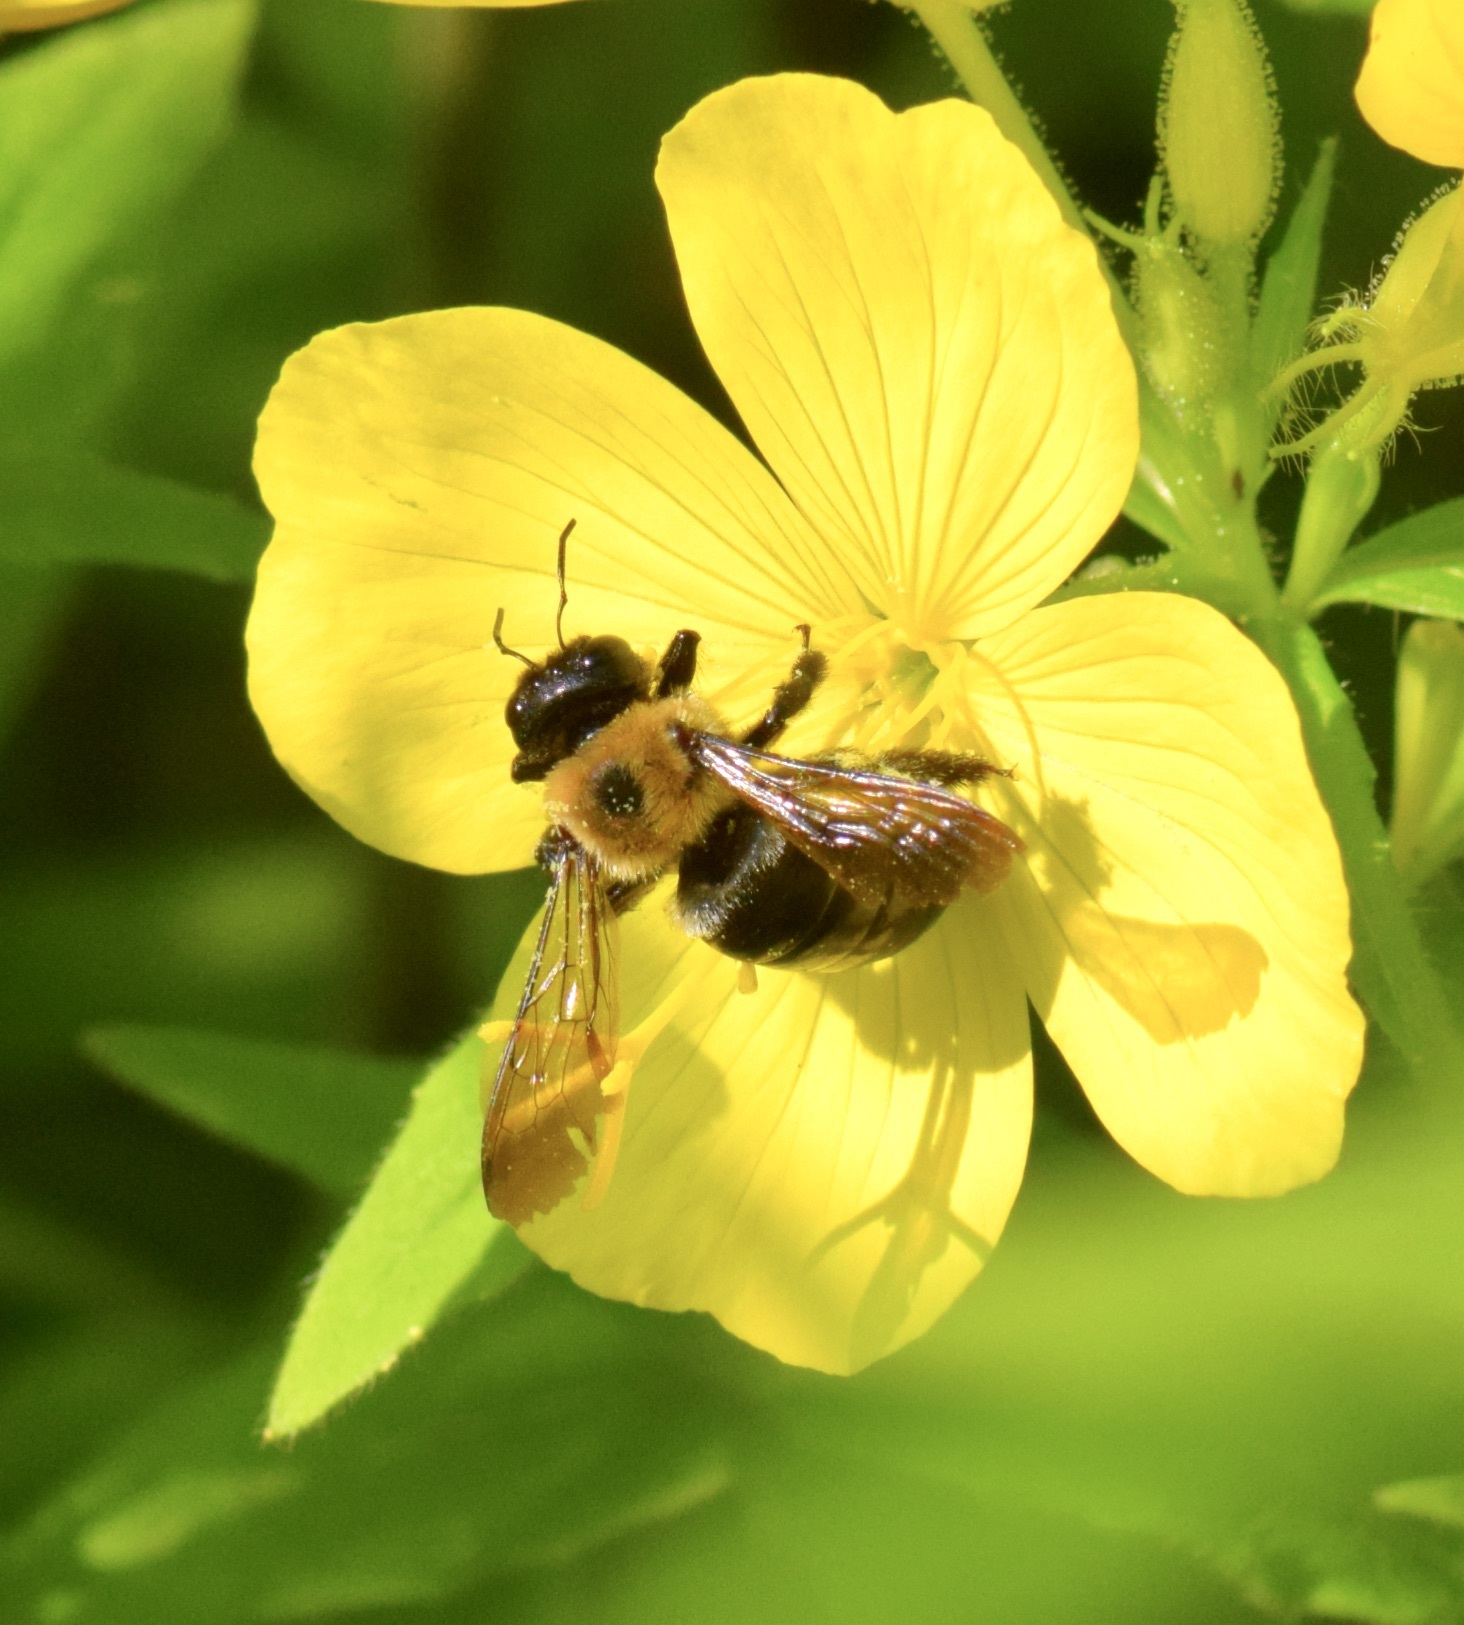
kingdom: Animalia
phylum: Arthropoda
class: Insecta
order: Hymenoptera
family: Apidae
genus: Xylocopa
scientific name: Xylocopa virginica
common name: Carpenter bee
